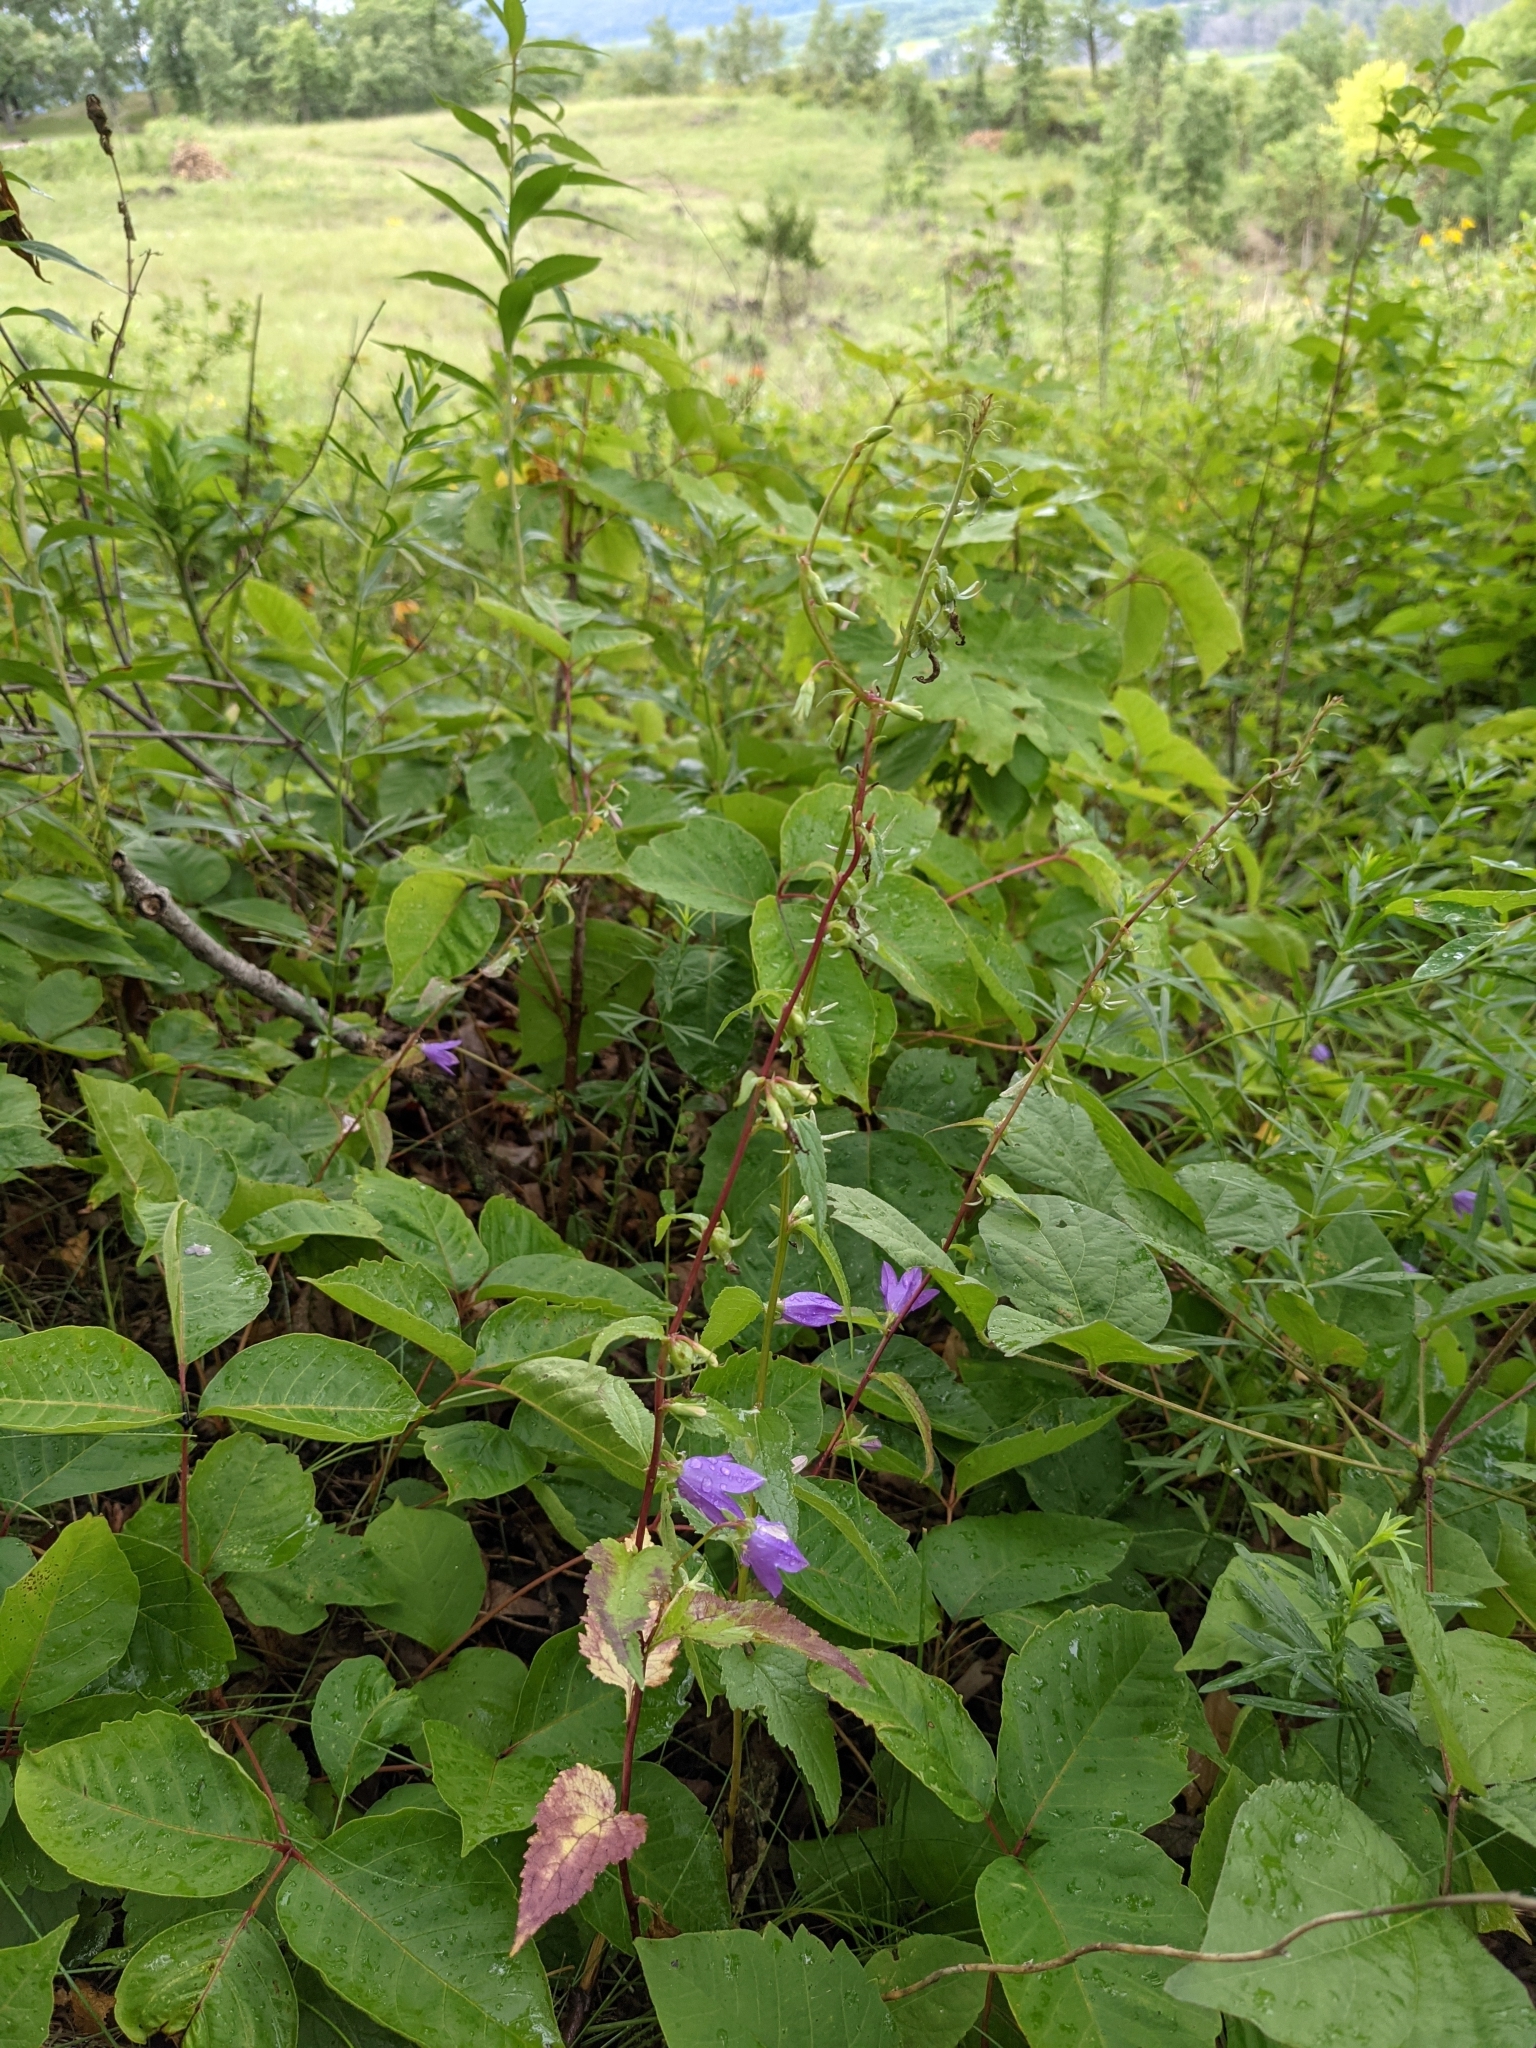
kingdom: Plantae
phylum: Tracheophyta
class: Magnoliopsida
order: Asterales
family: Campanulaceae
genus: Campanula
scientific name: Campanula rapunculoides
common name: Creeping bellflower
